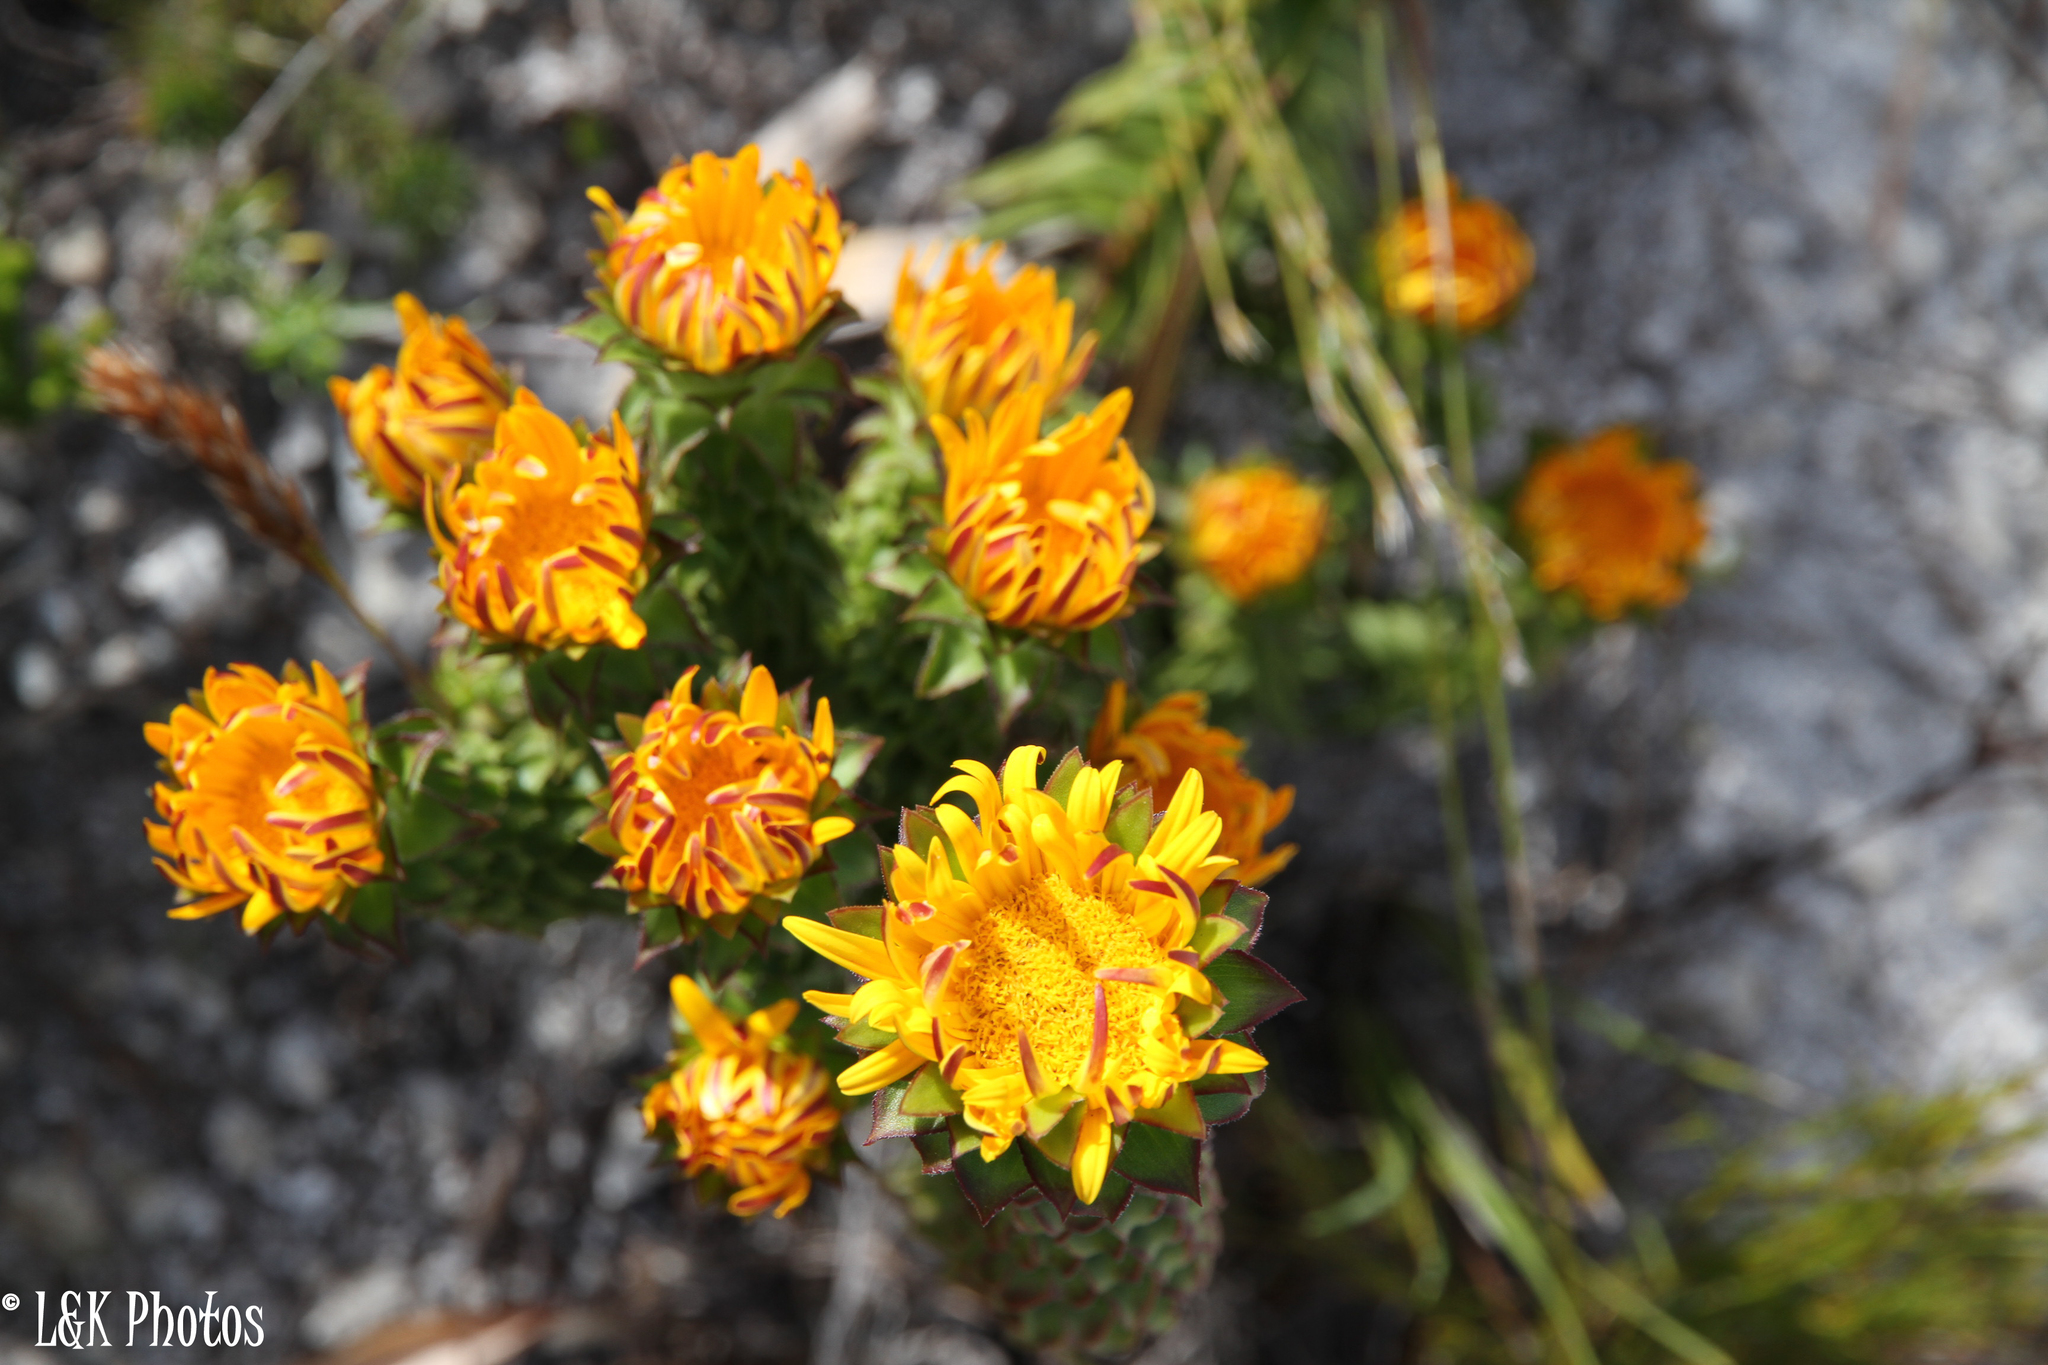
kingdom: Plantae
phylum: Tracheophyta
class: Magnoliopsida
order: Asterales
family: Asteraceae
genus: Oedera
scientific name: Oedera imbricata
